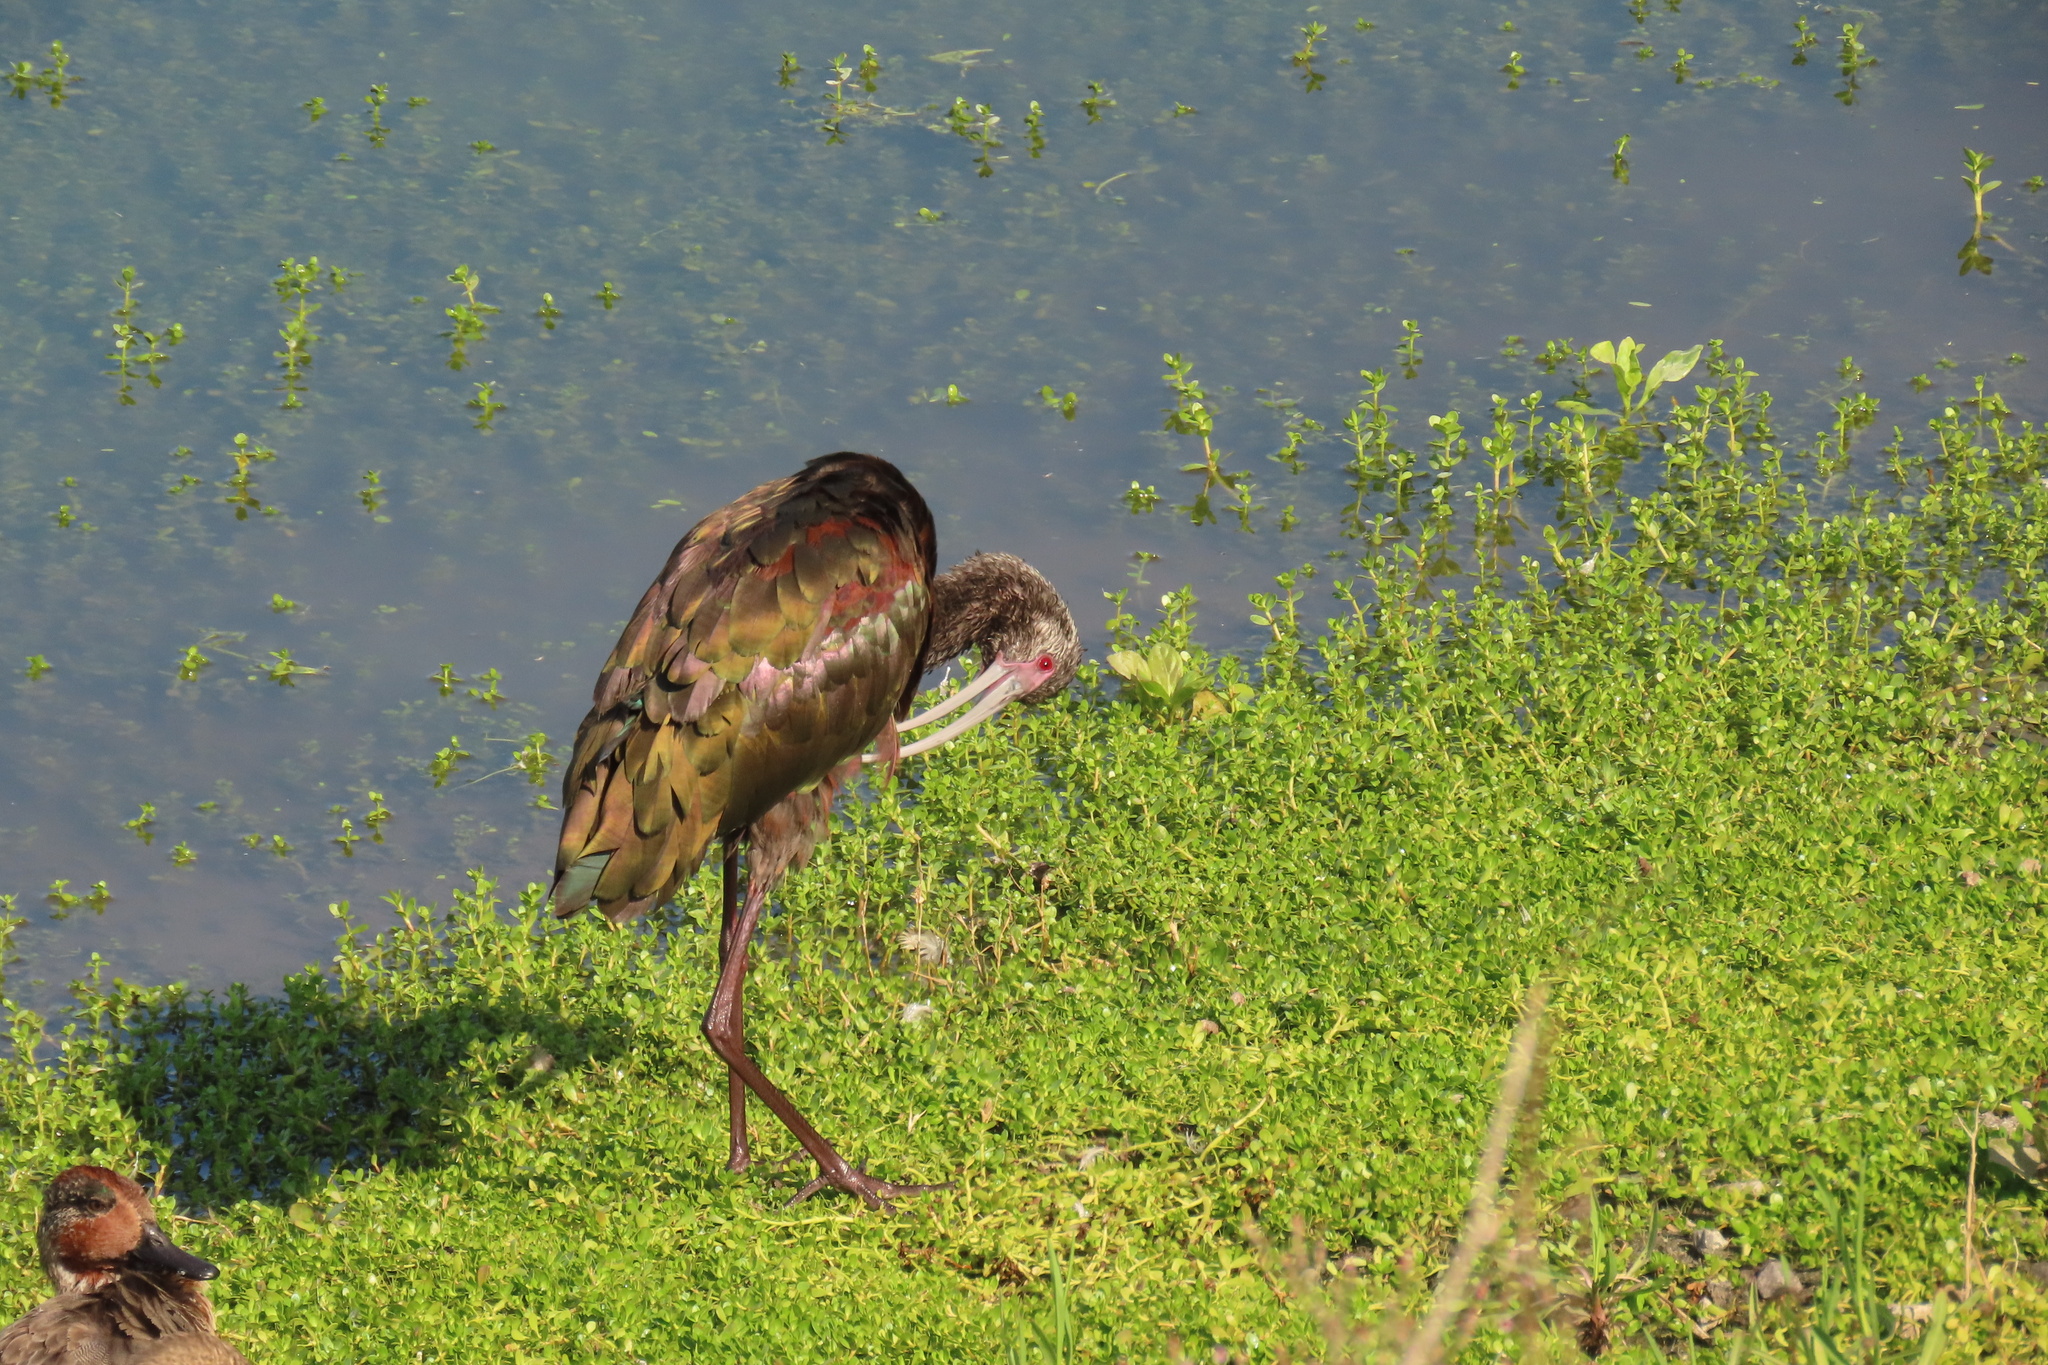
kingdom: Animalia
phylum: Chordata
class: Aves
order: Pelecaniformes
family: Threskiornithidae
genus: Plegadis
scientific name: Plegadis chihi
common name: White-faced ibis
